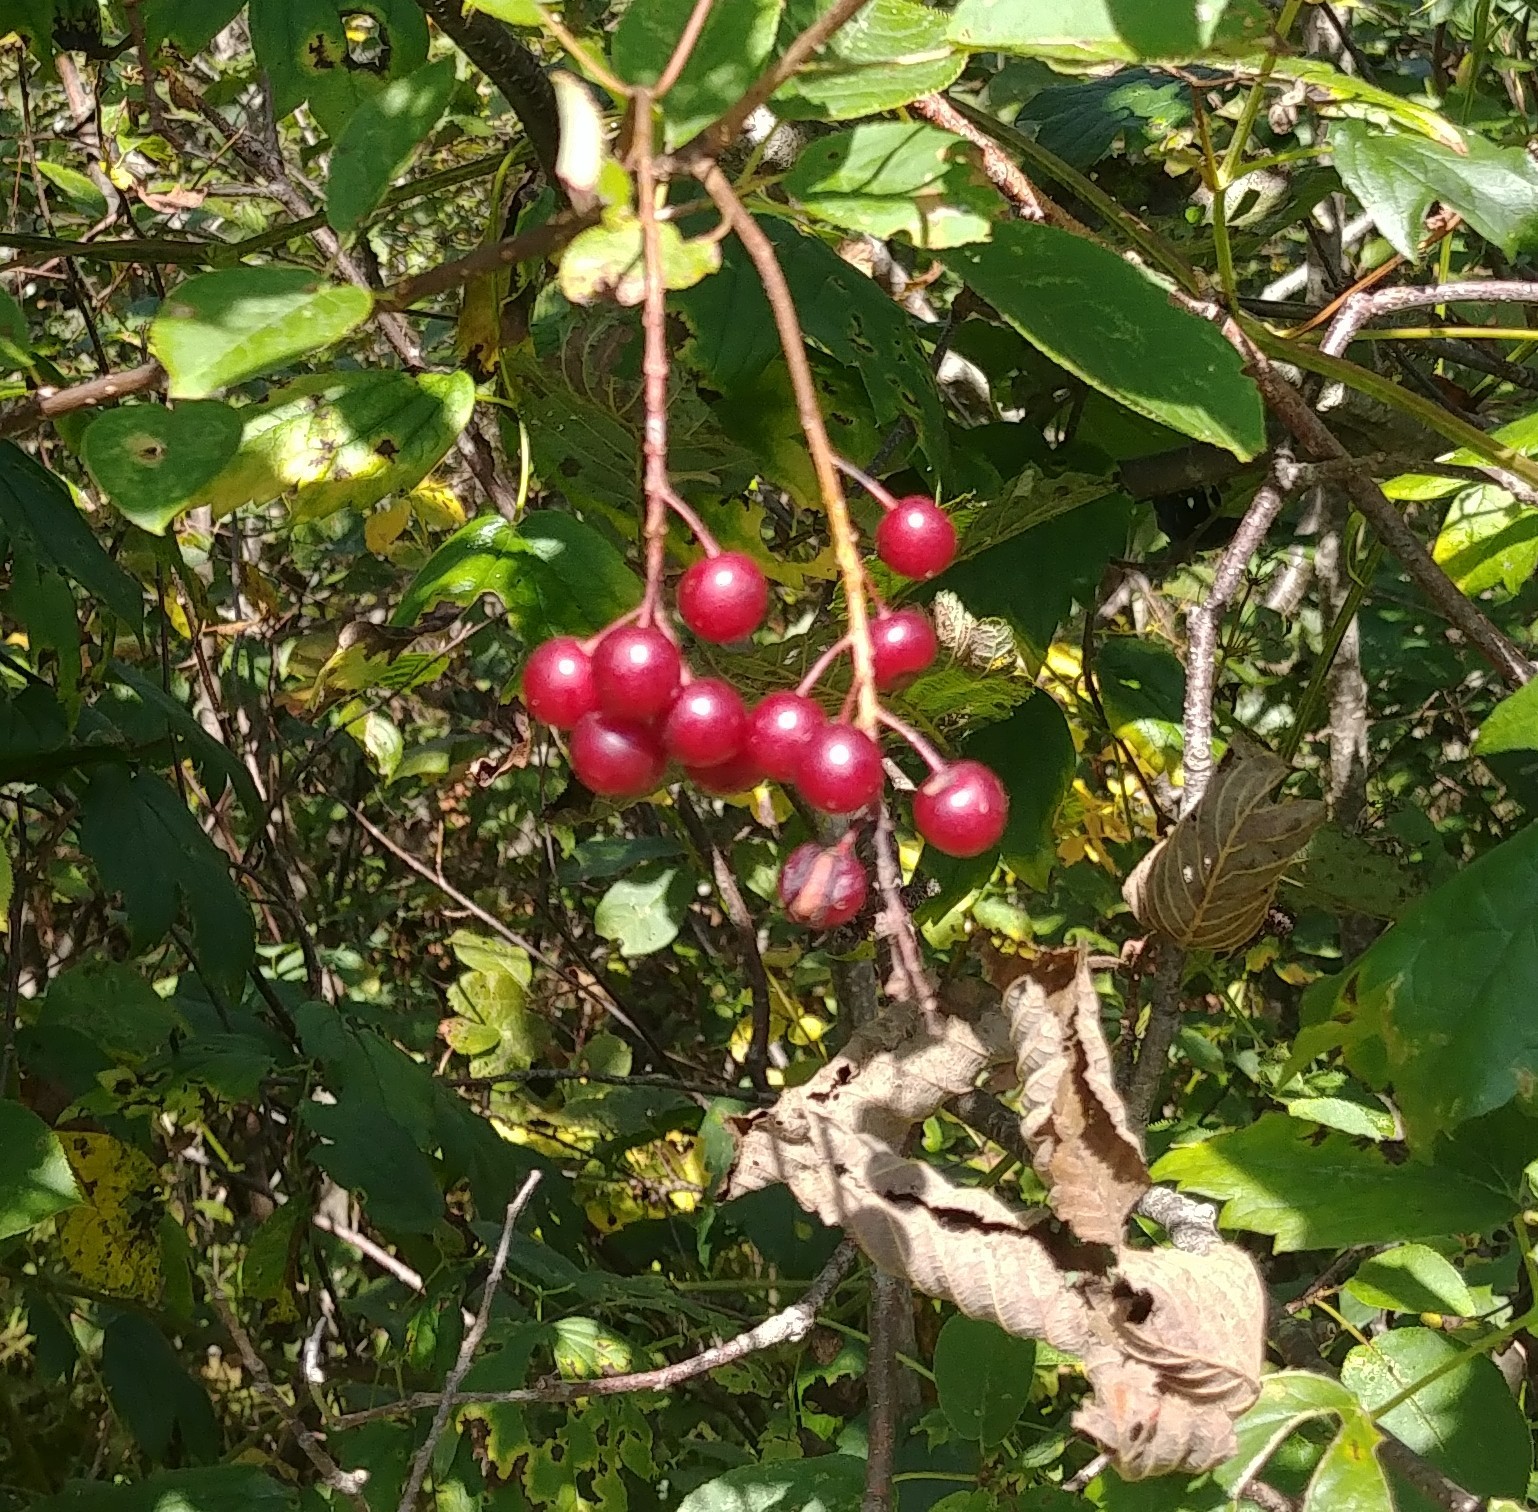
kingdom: Plantae
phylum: Tracheophyta
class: Magnoliopsida
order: Rosales
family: Rosaceae
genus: Prunus
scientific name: Prunus virginiana
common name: Chokecherry
